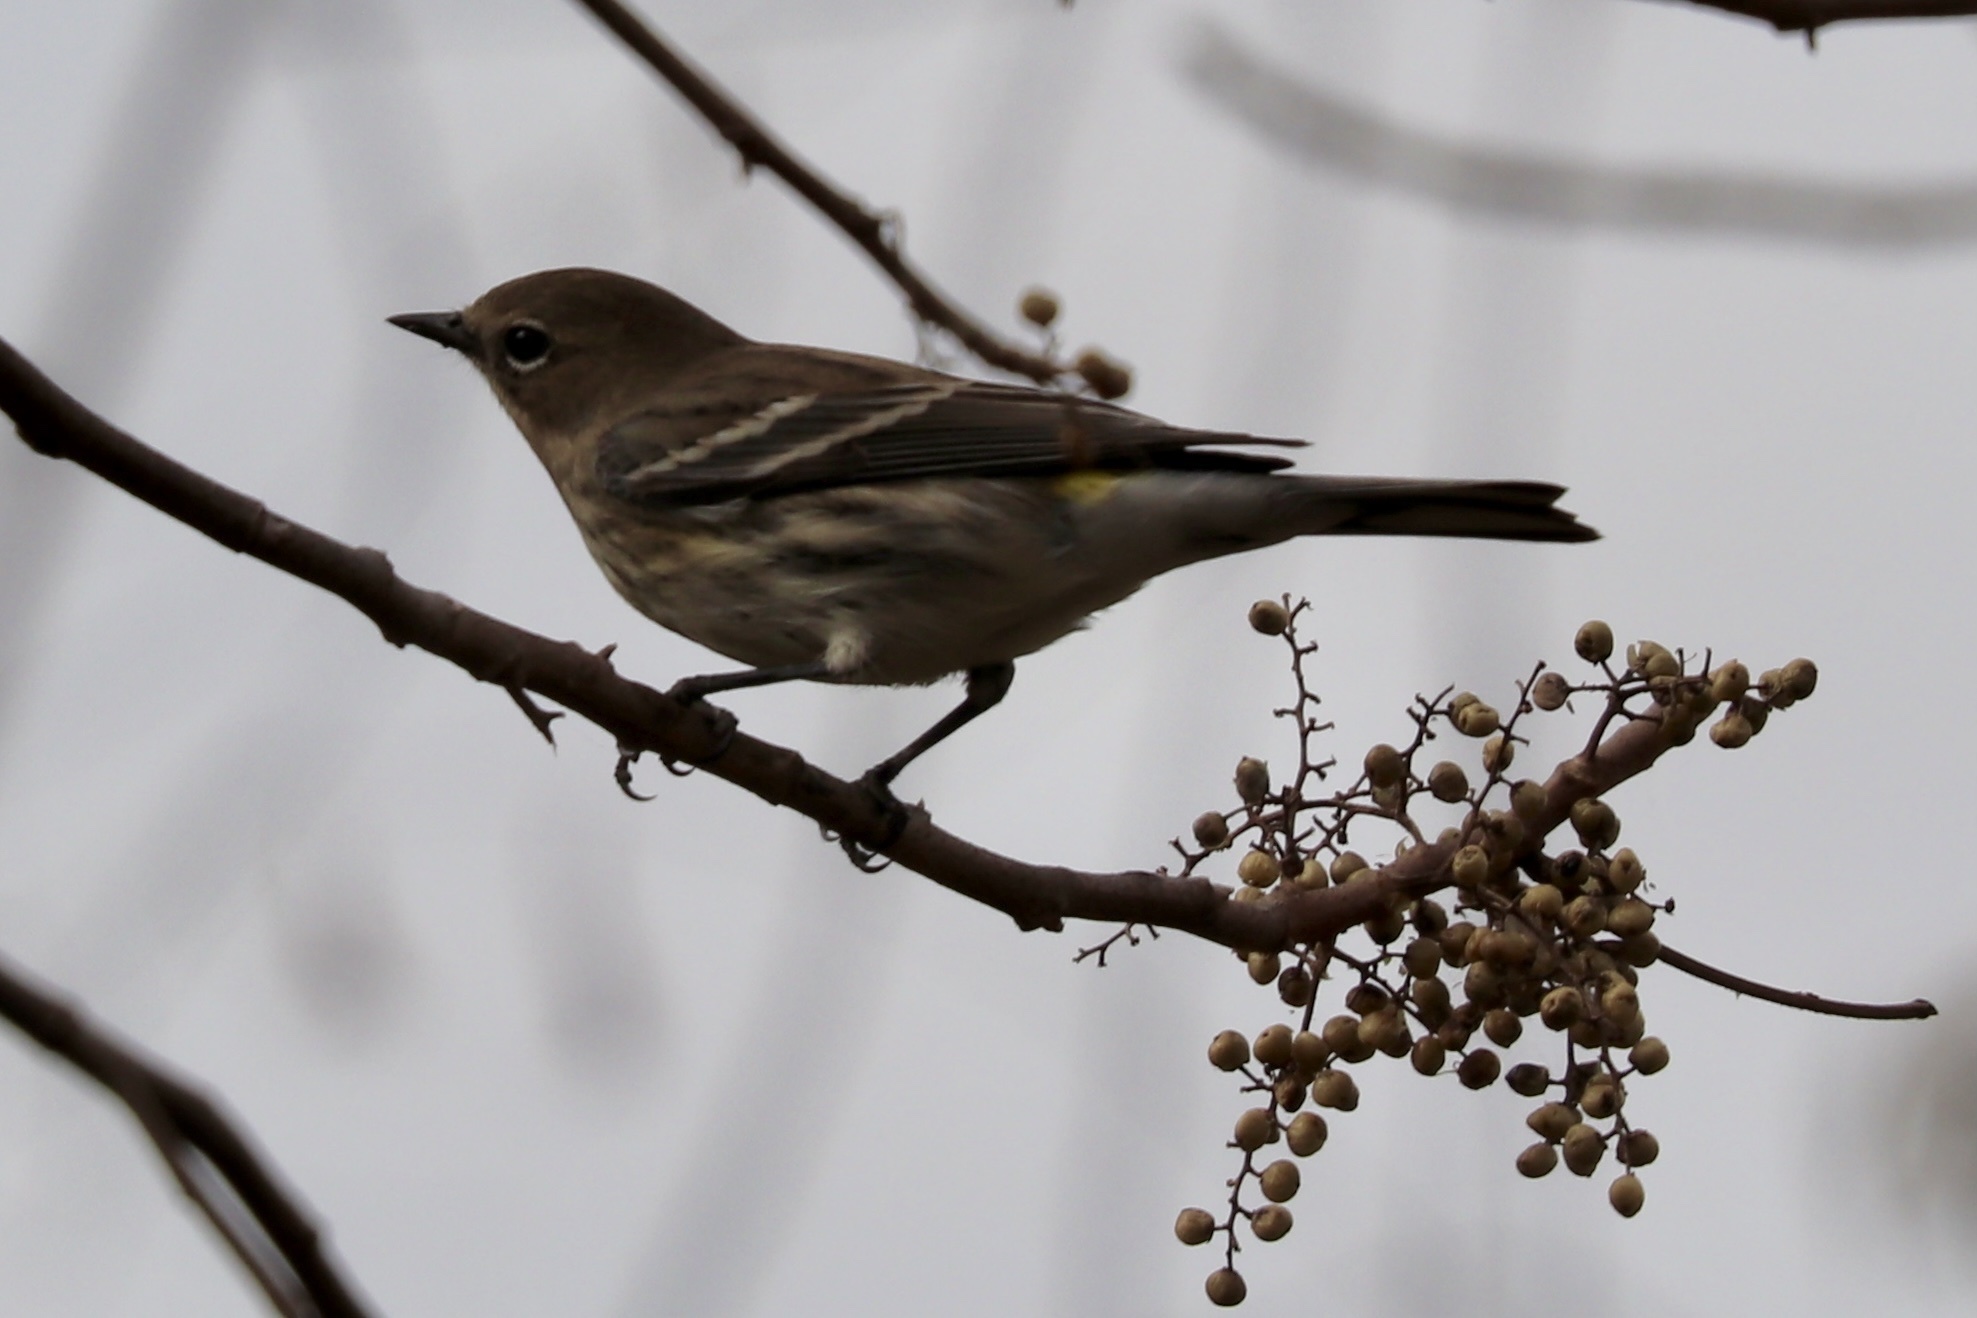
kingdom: Animalia
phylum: Chordata
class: Aves
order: Passeriformes
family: Parulidae
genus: Setophaga
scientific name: Setophaga coronata
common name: Myrtle warbler
